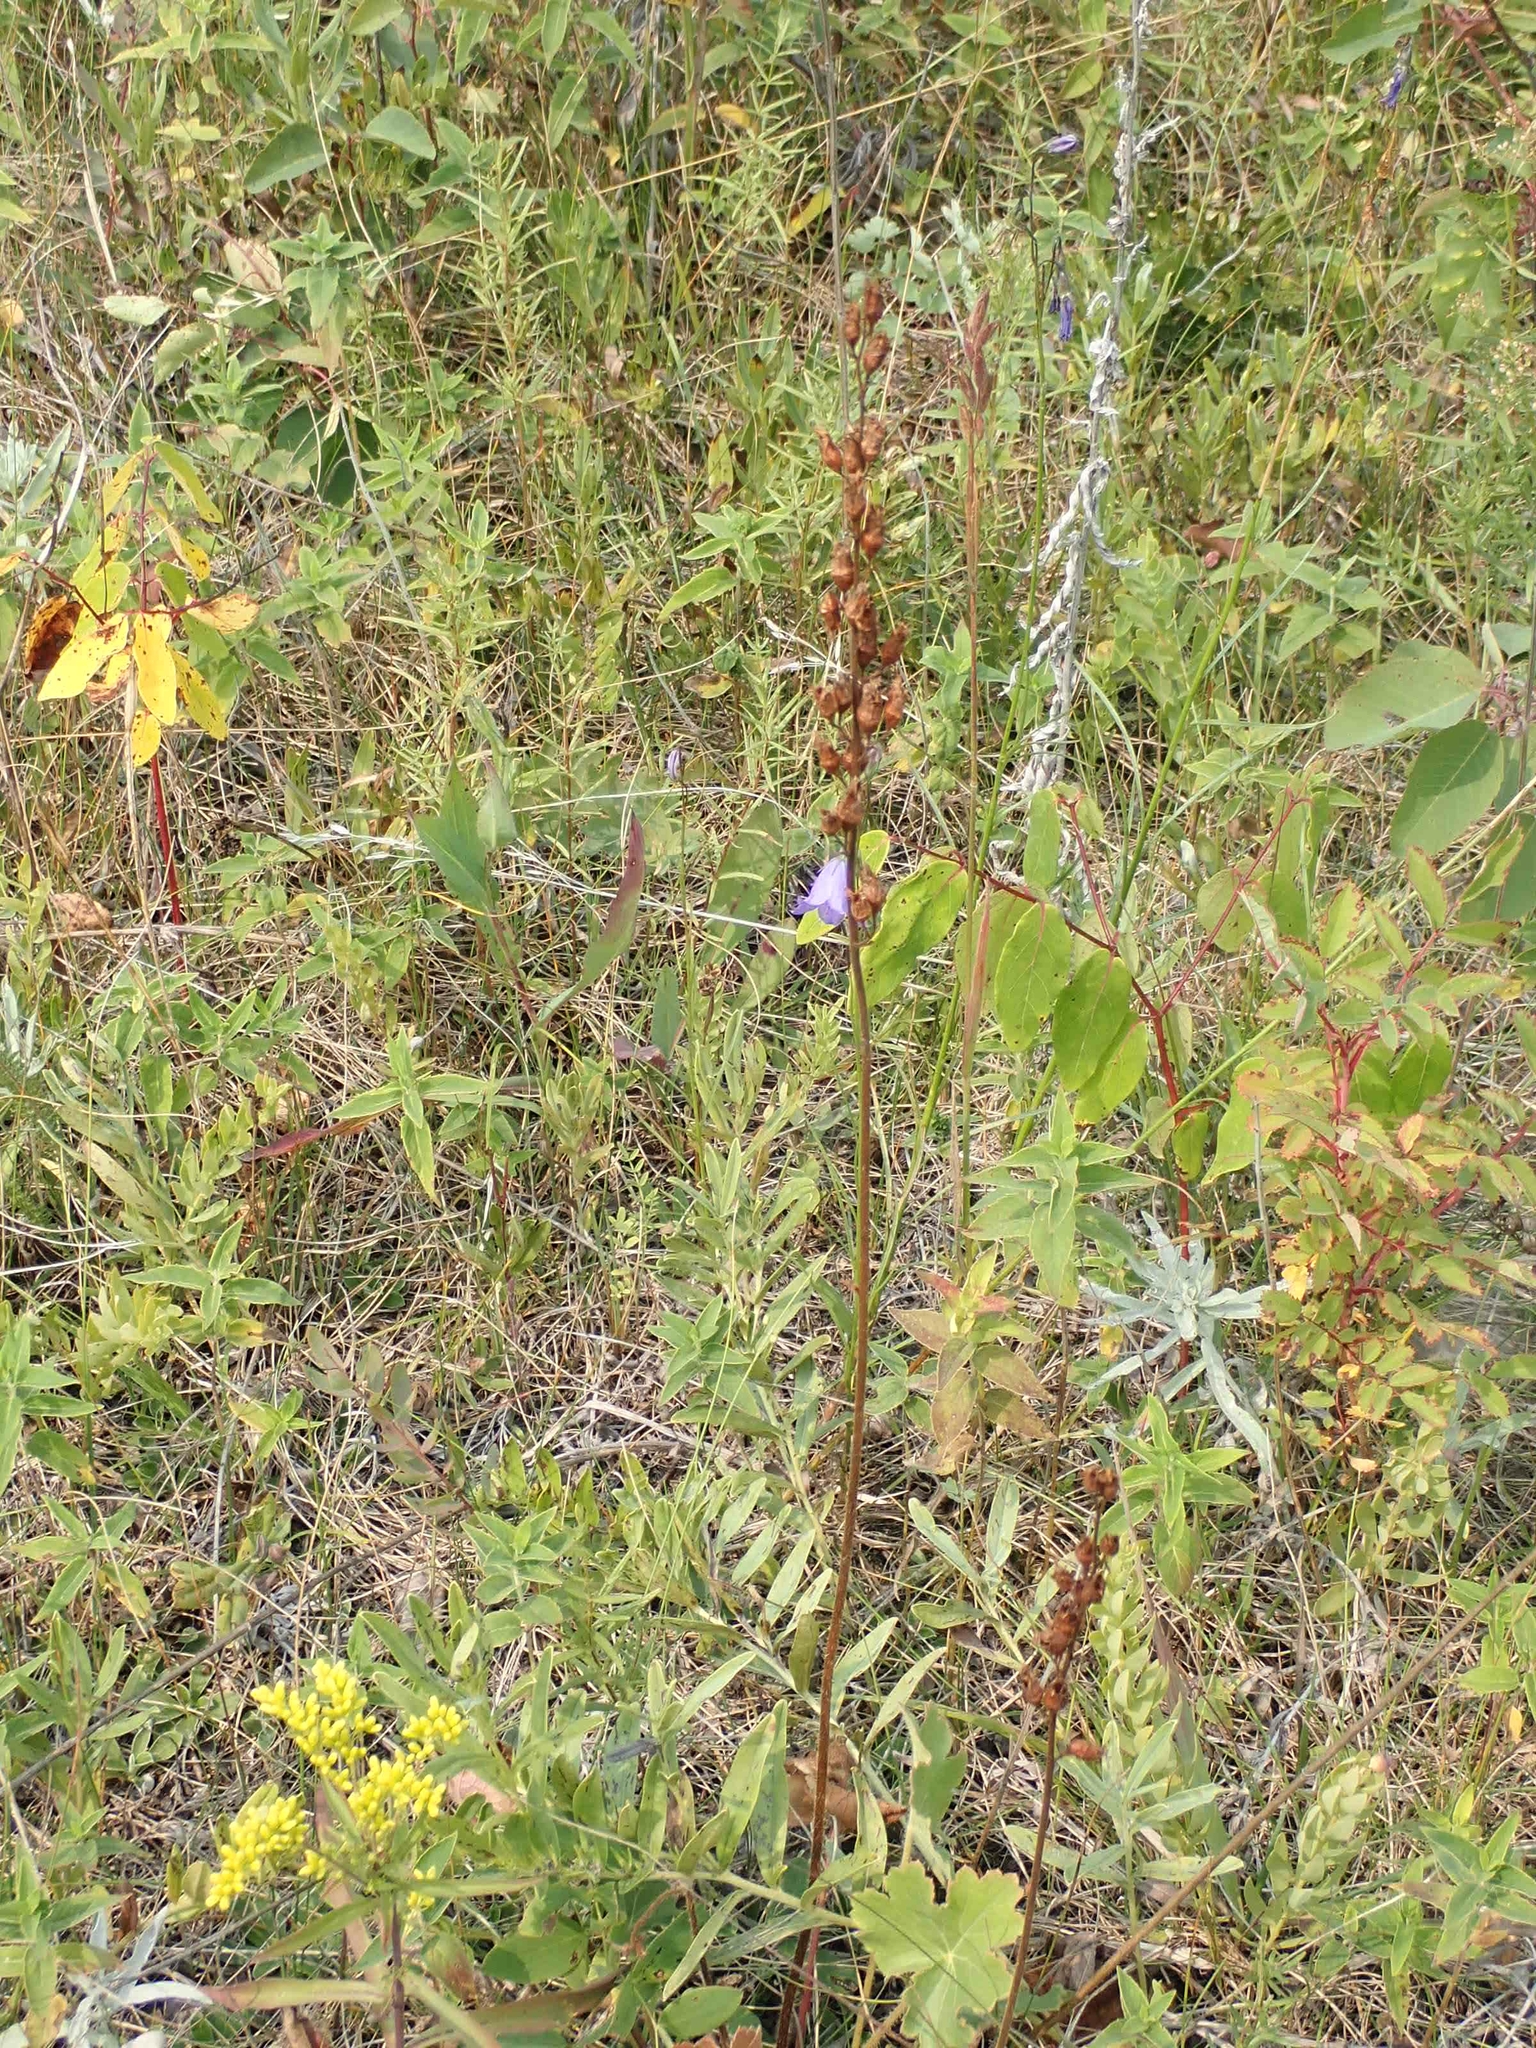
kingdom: Plantae
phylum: Tracheophyta
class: Magnoliopsida
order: Saxifragales
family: Saxifragaceae
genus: Heuchera
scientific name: Heuchera richardsonii
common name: Richardson's alumroot
